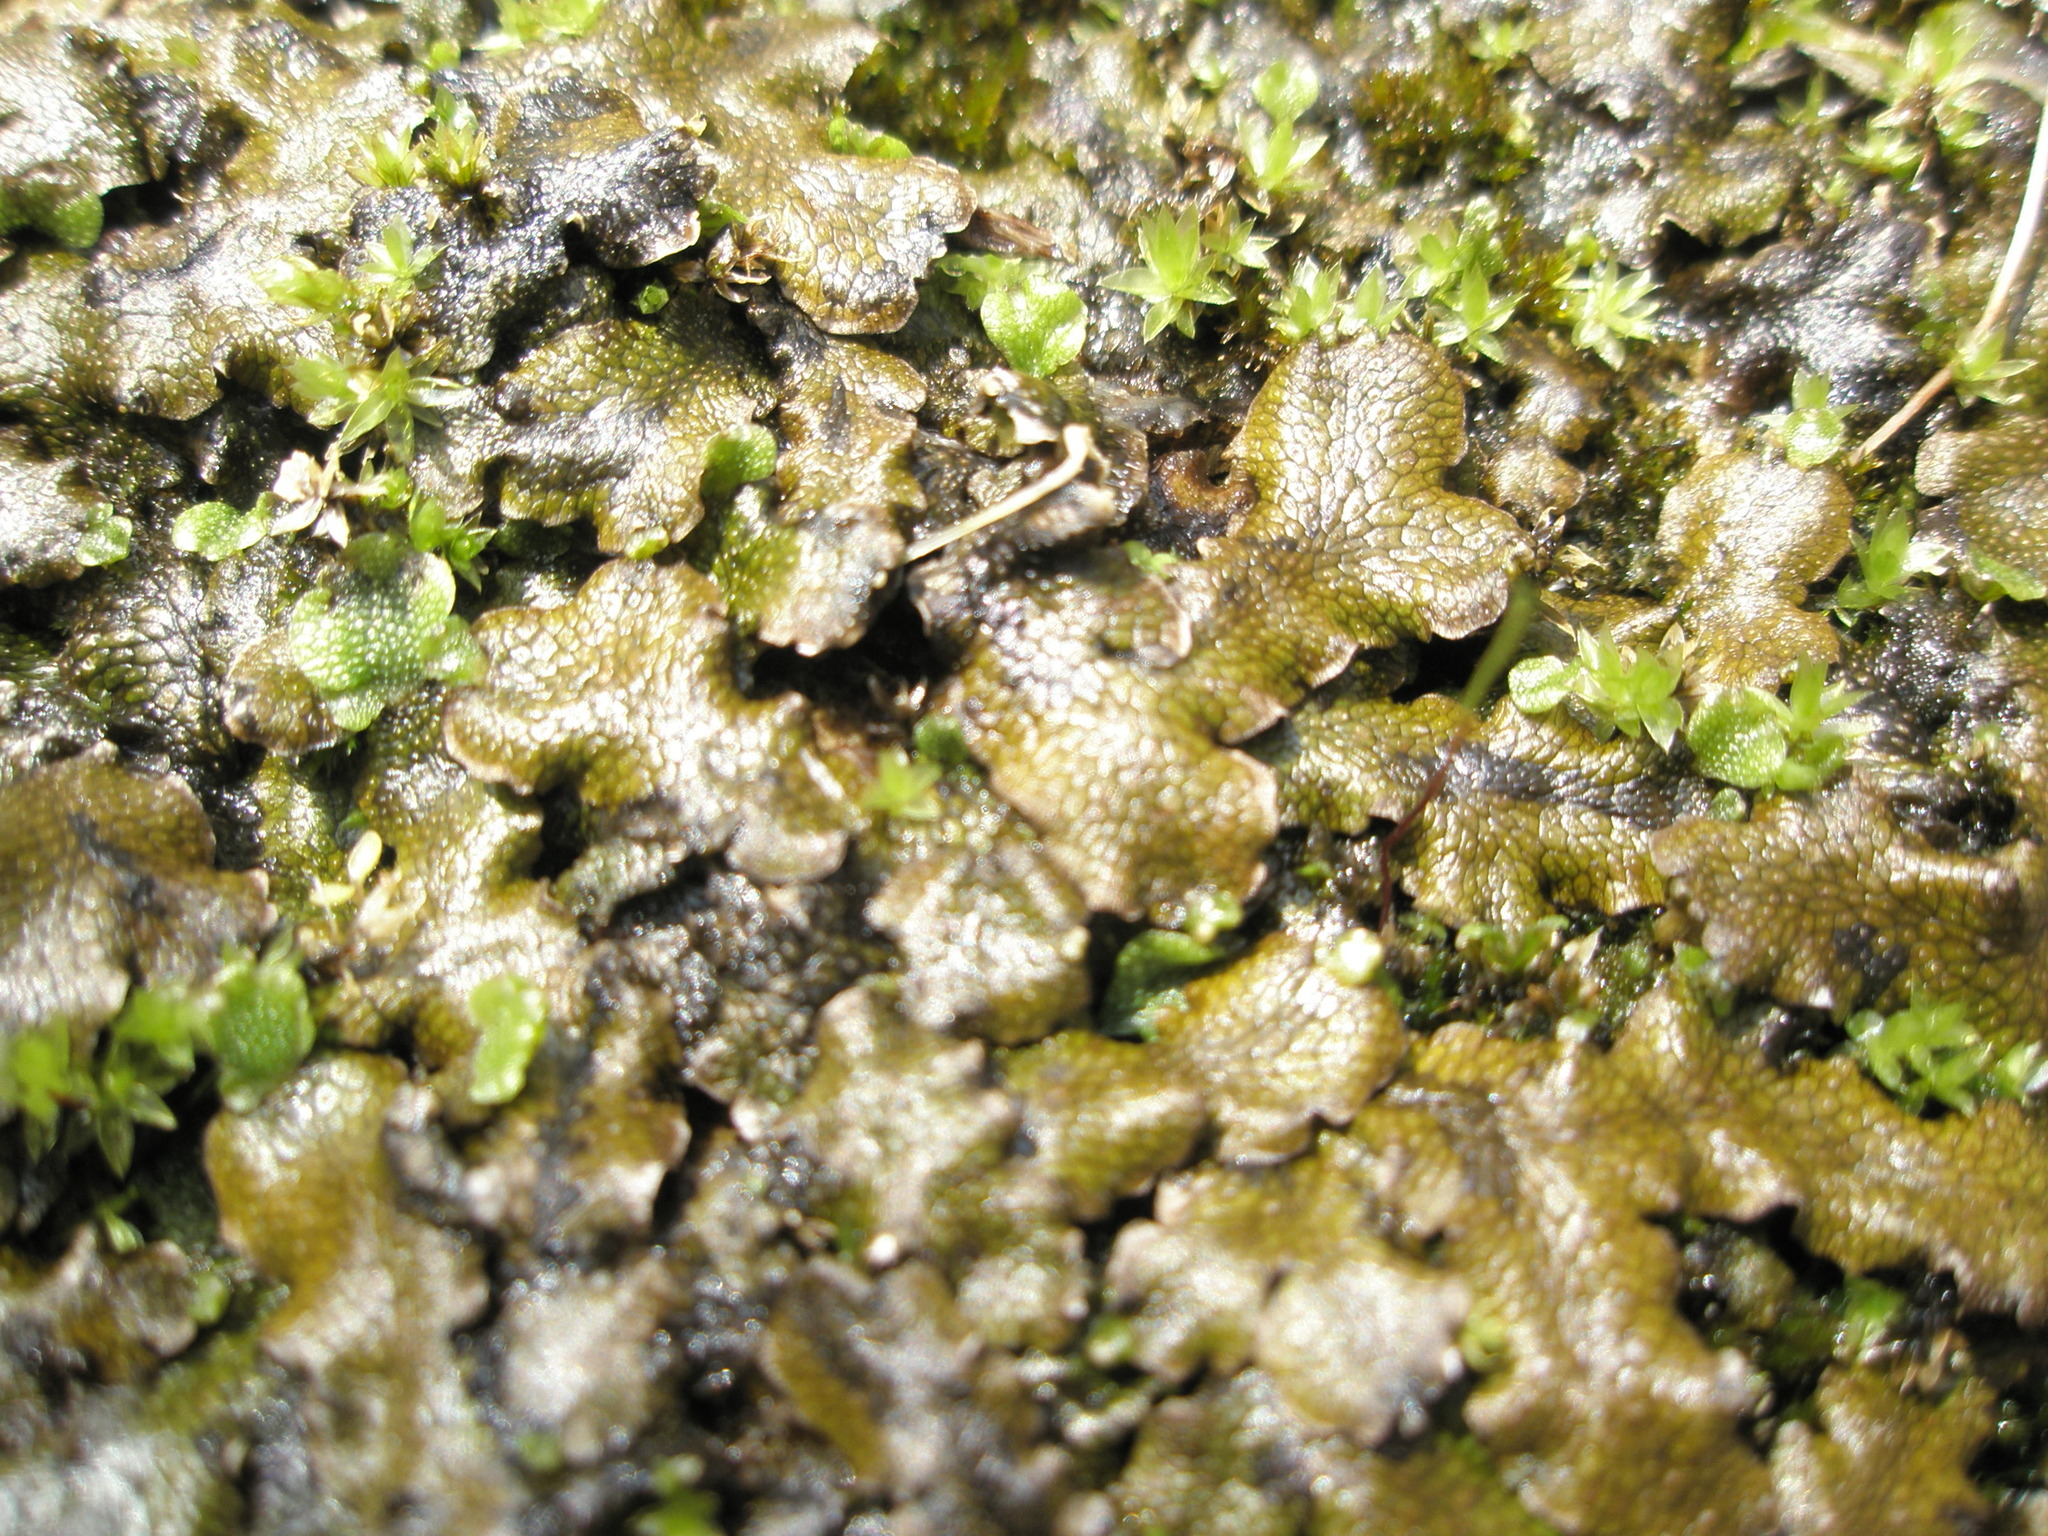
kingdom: Plantae
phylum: Marchantiophyta
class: Marchantiopsida
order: Marchantiales
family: Conocephalaceae
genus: Conocephalum
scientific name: Conocephalum salebrosum
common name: Cat-tongue liverwort
